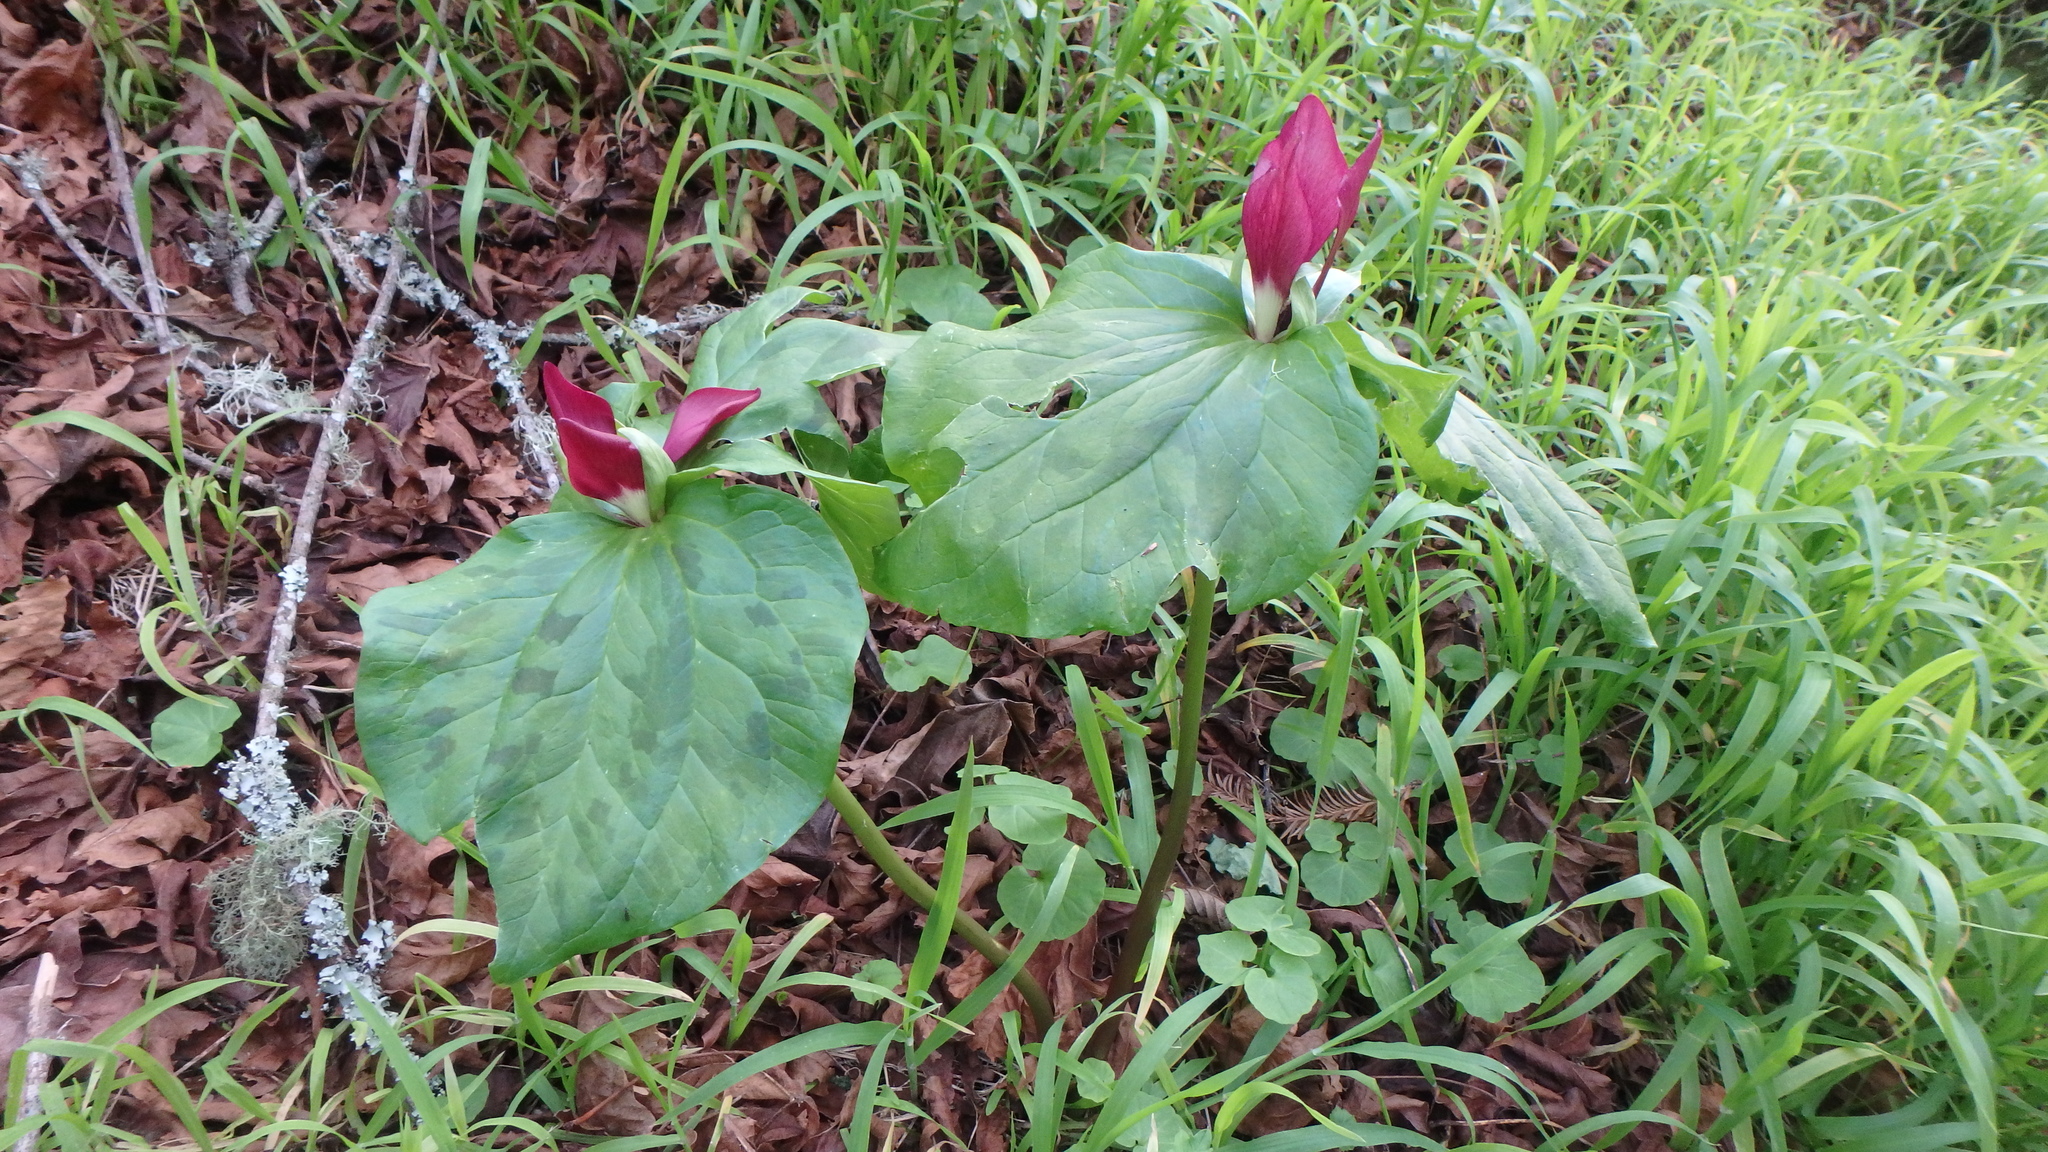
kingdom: Plantae
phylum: Tracheophyta
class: Liliopsida
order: Liliales
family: Melanthiaceae
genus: Trillium
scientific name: Trillium chloropetalum
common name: Giant trillium
